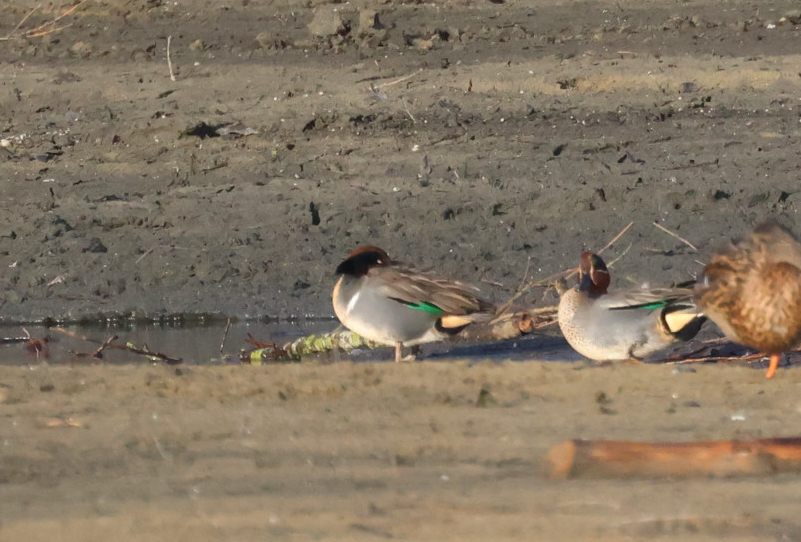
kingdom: Animalia
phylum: Chordata
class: Aves
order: Anseriformes
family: Anatidae
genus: Anas
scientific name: Anas carolinensis
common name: Green-winged teal
